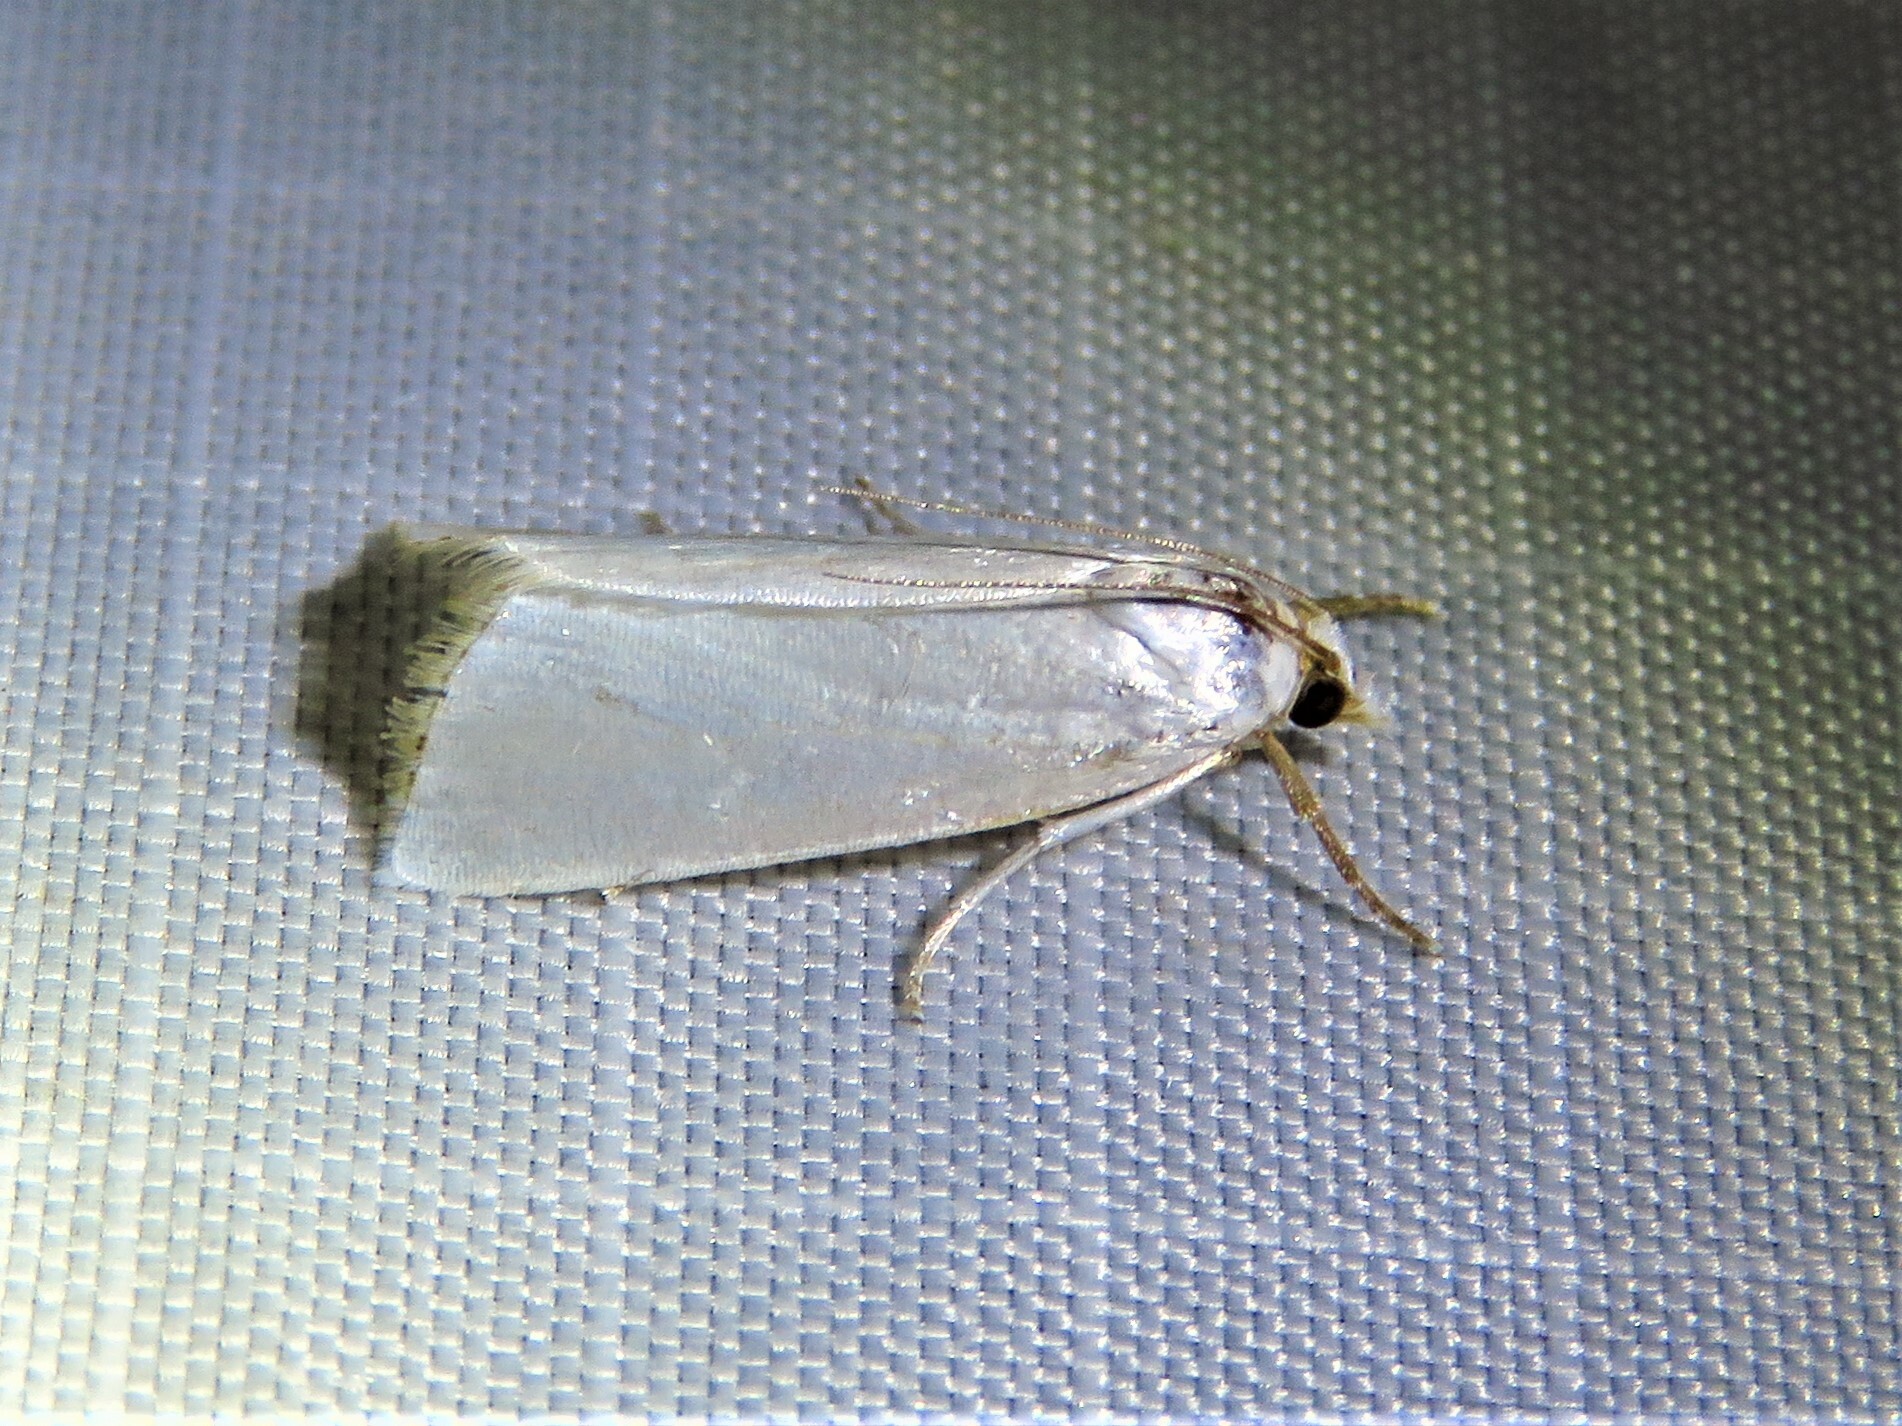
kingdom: Animalia
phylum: Arthropoda
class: Insecta
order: Lepidoptera
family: Crambidae
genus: Argyria
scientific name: Argyria nivalis
